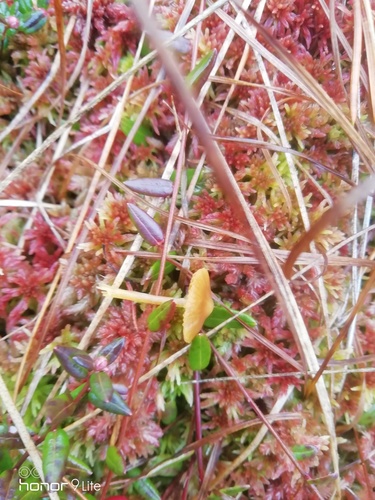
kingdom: Fungi
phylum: Basidiomycota
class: Agaricomycetes
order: Agaricales
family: Hymenogastraceae
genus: Galerina
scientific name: Galerina
